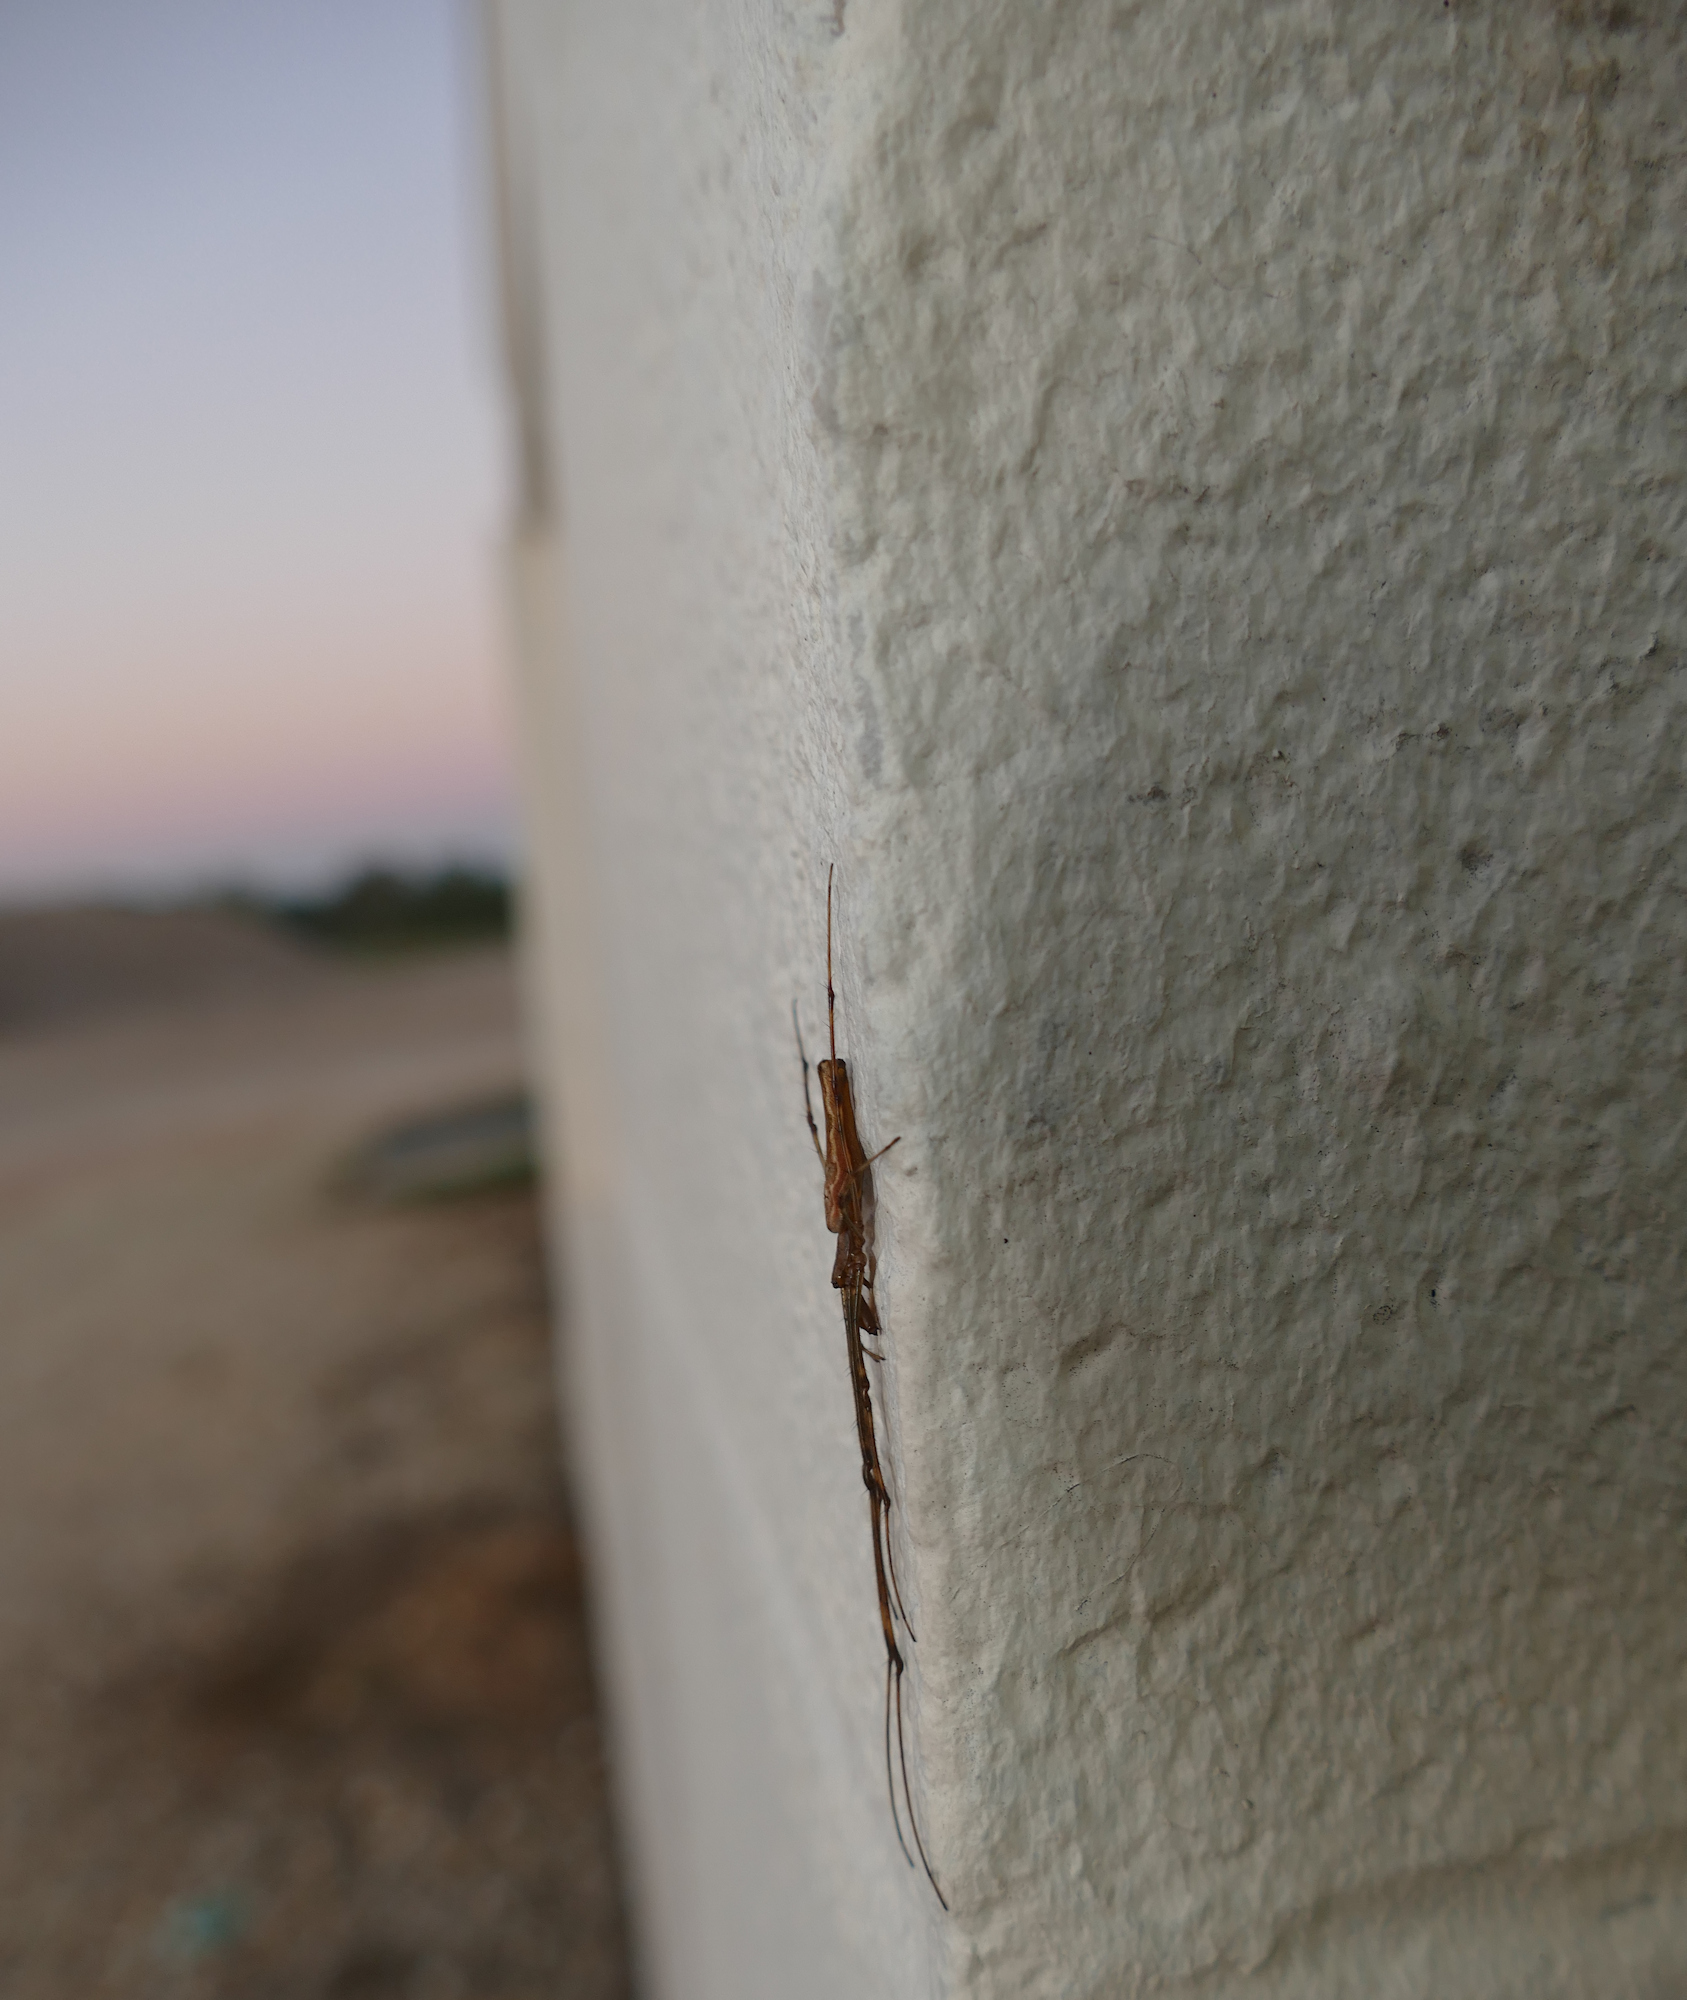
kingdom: Animalia
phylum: Arthropoda
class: Arachnida
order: Araneae
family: Tetragnathidae
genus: Tetragnatha
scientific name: Tetragnatha guatemalensis
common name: Longjawed orb weavers
